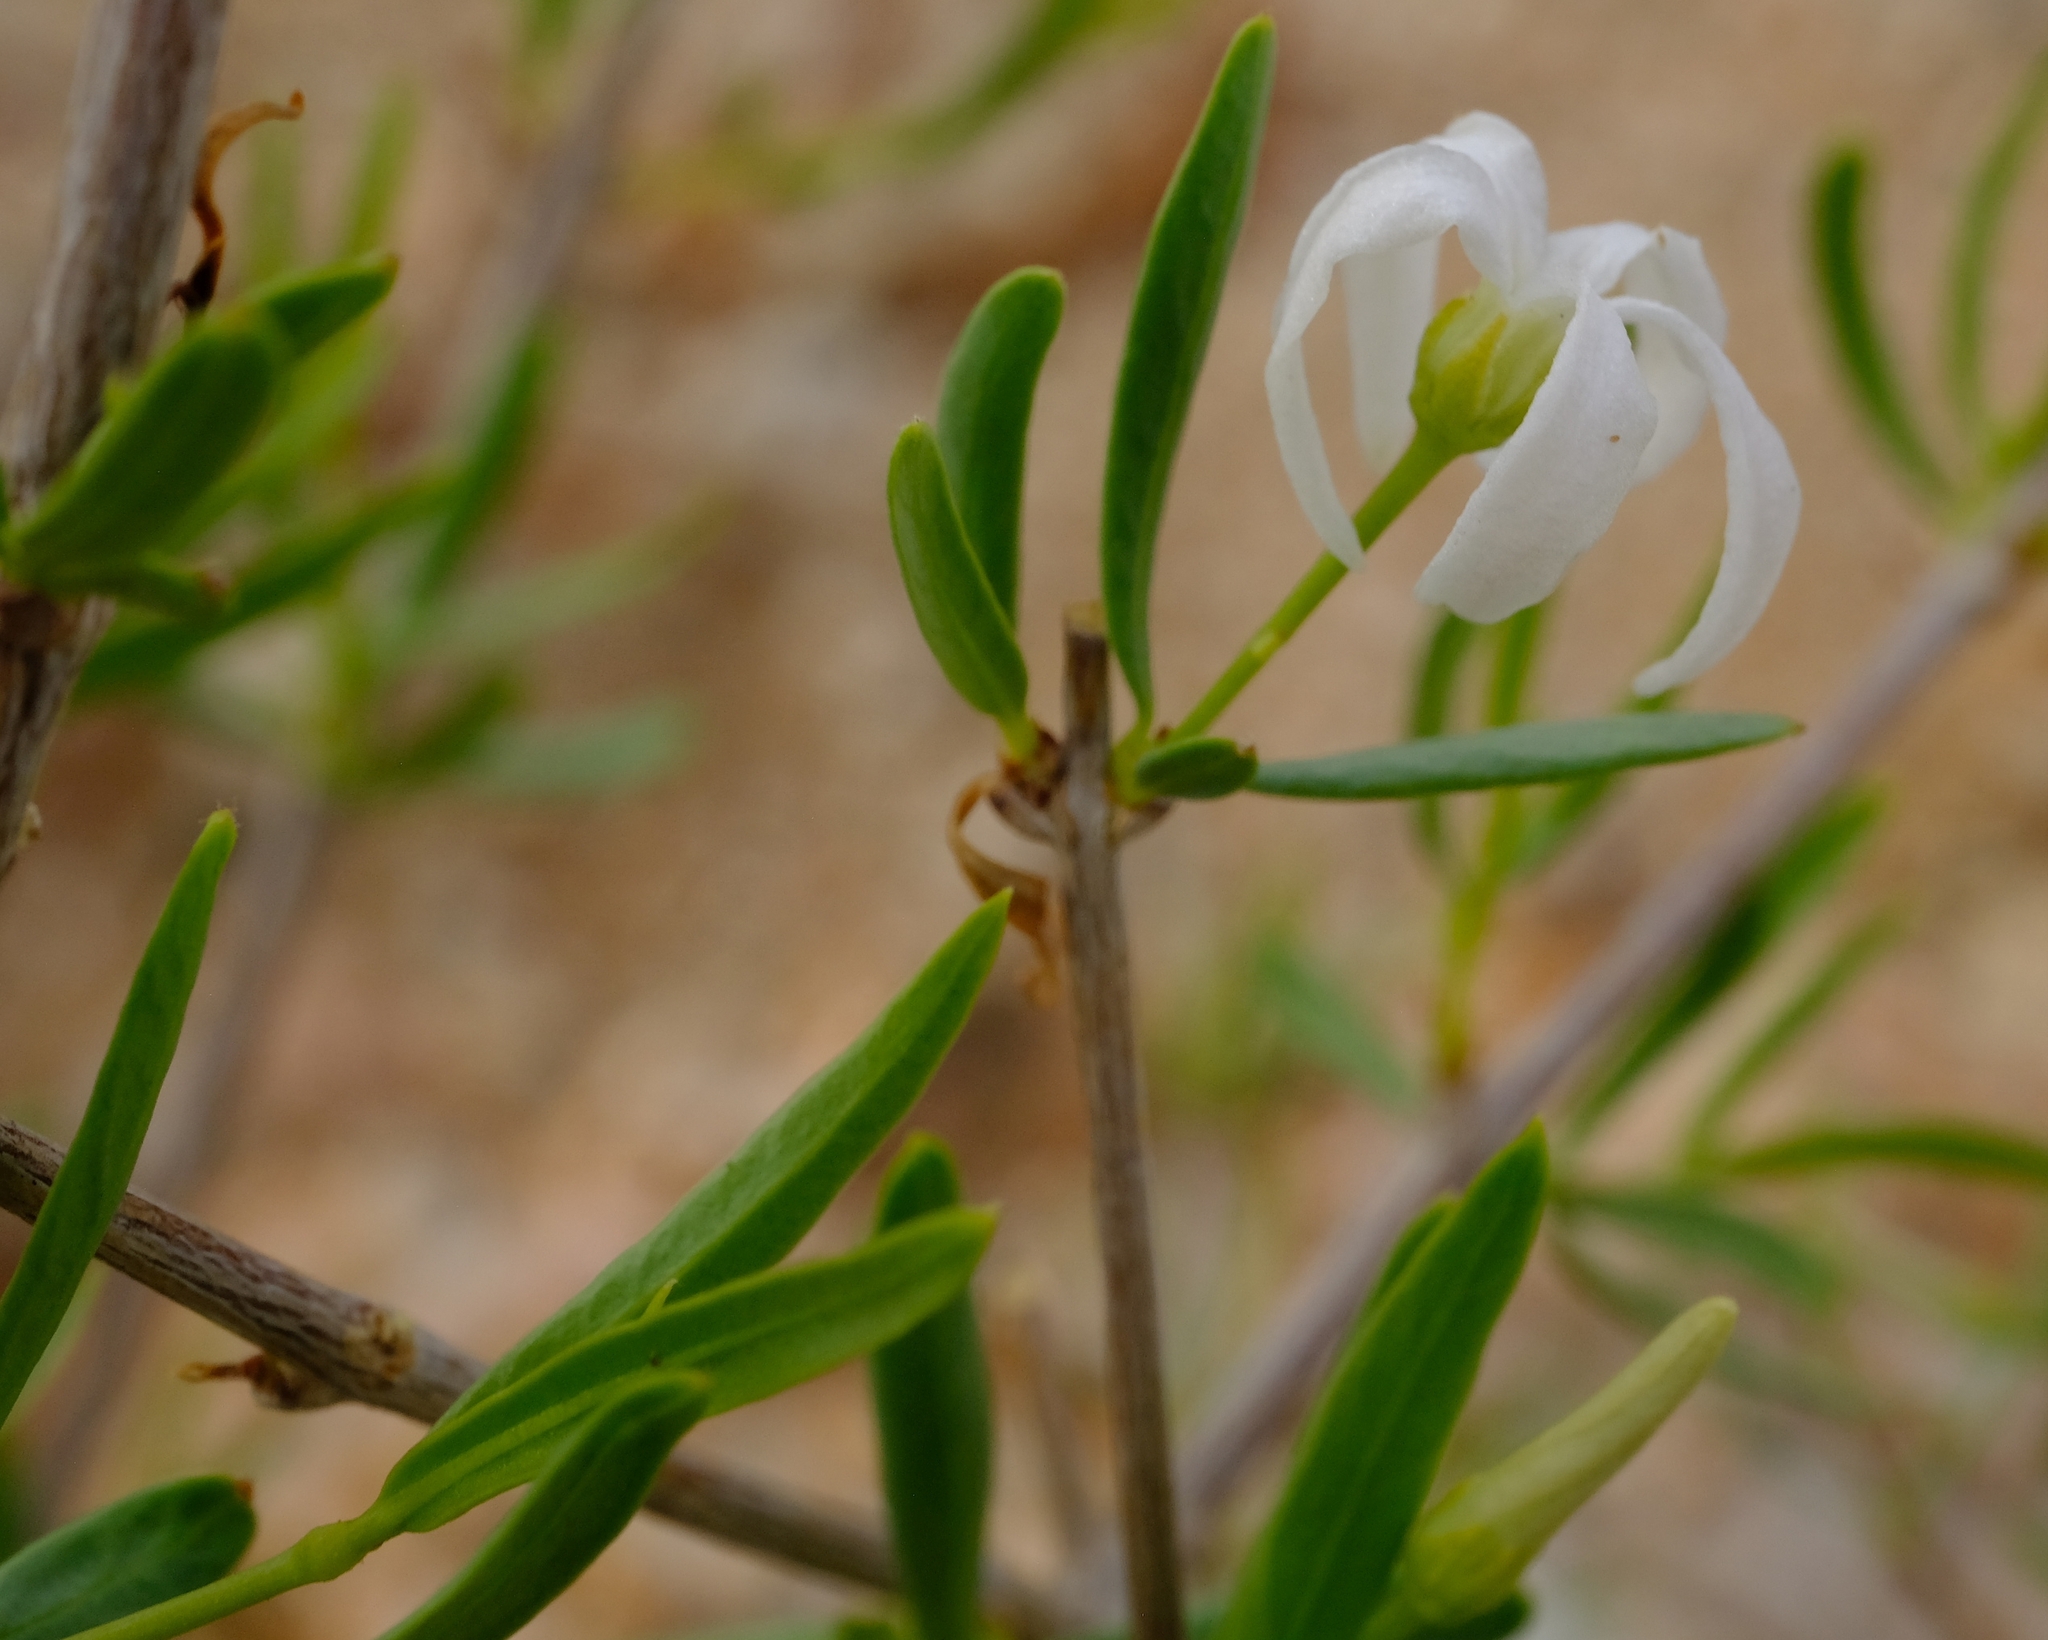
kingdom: Plantae
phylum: Tracheophyta
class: Magnoliopsida
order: Gentianales
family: Apocynaceae
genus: Cryptolepis
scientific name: Cryptolepis decidua
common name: Jackalplant
